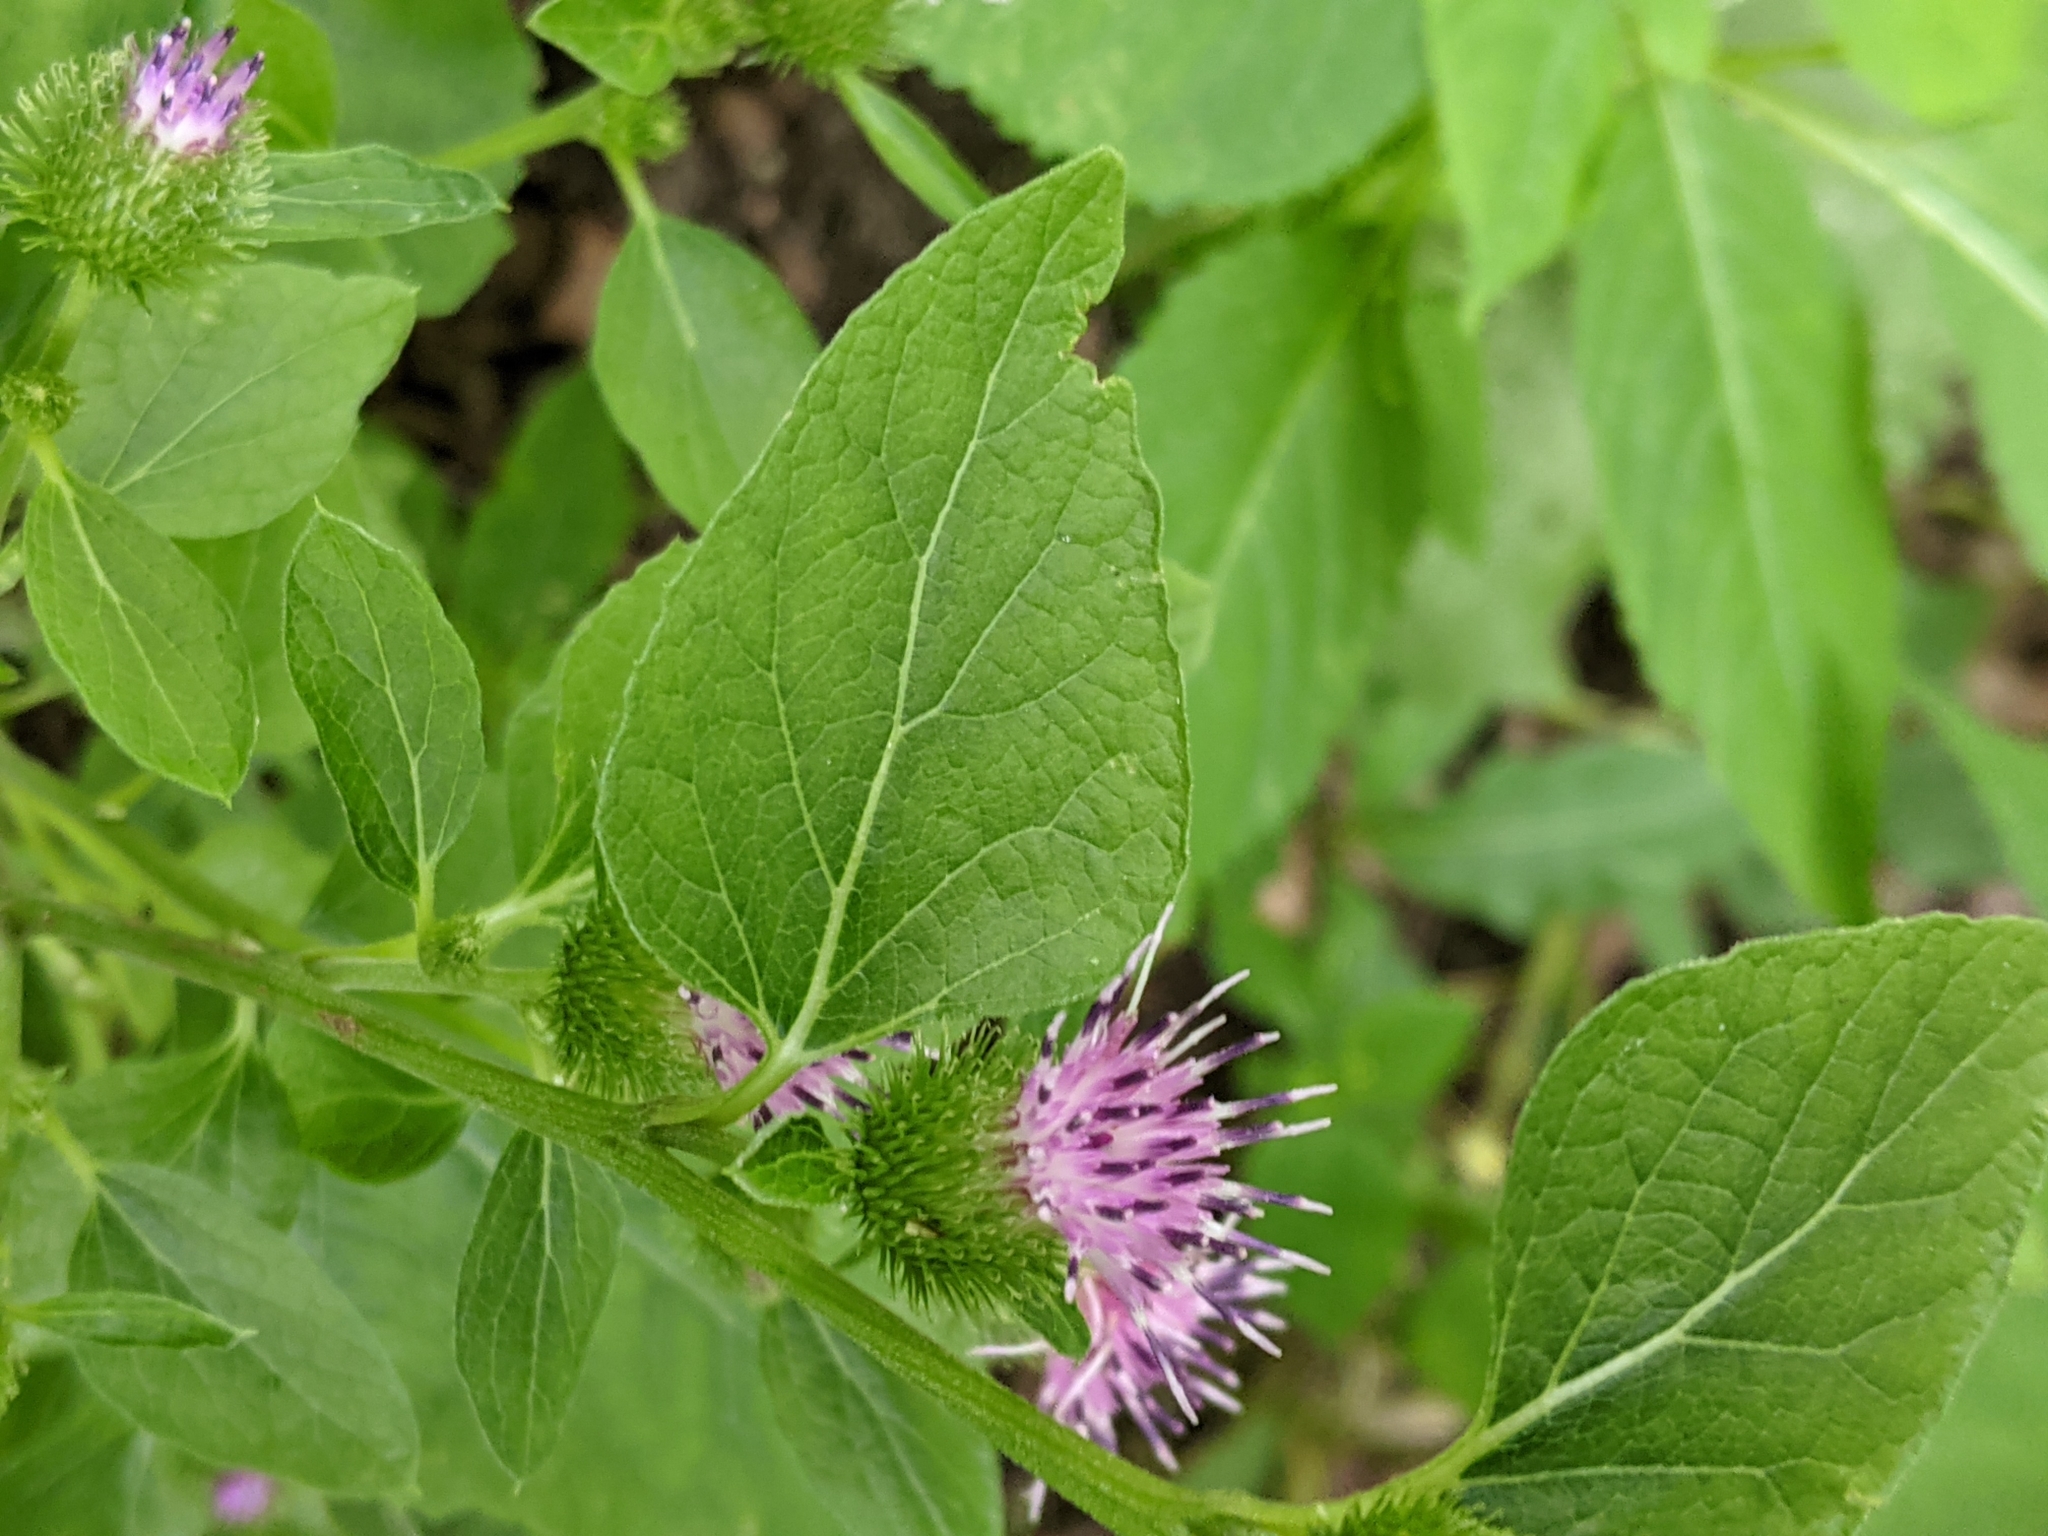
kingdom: Plantae
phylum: Tracheophyta
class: Magnoliopsida
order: Asterales
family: Asteraceae
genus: Arctium
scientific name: Arctium minus
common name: Lesser burdock
